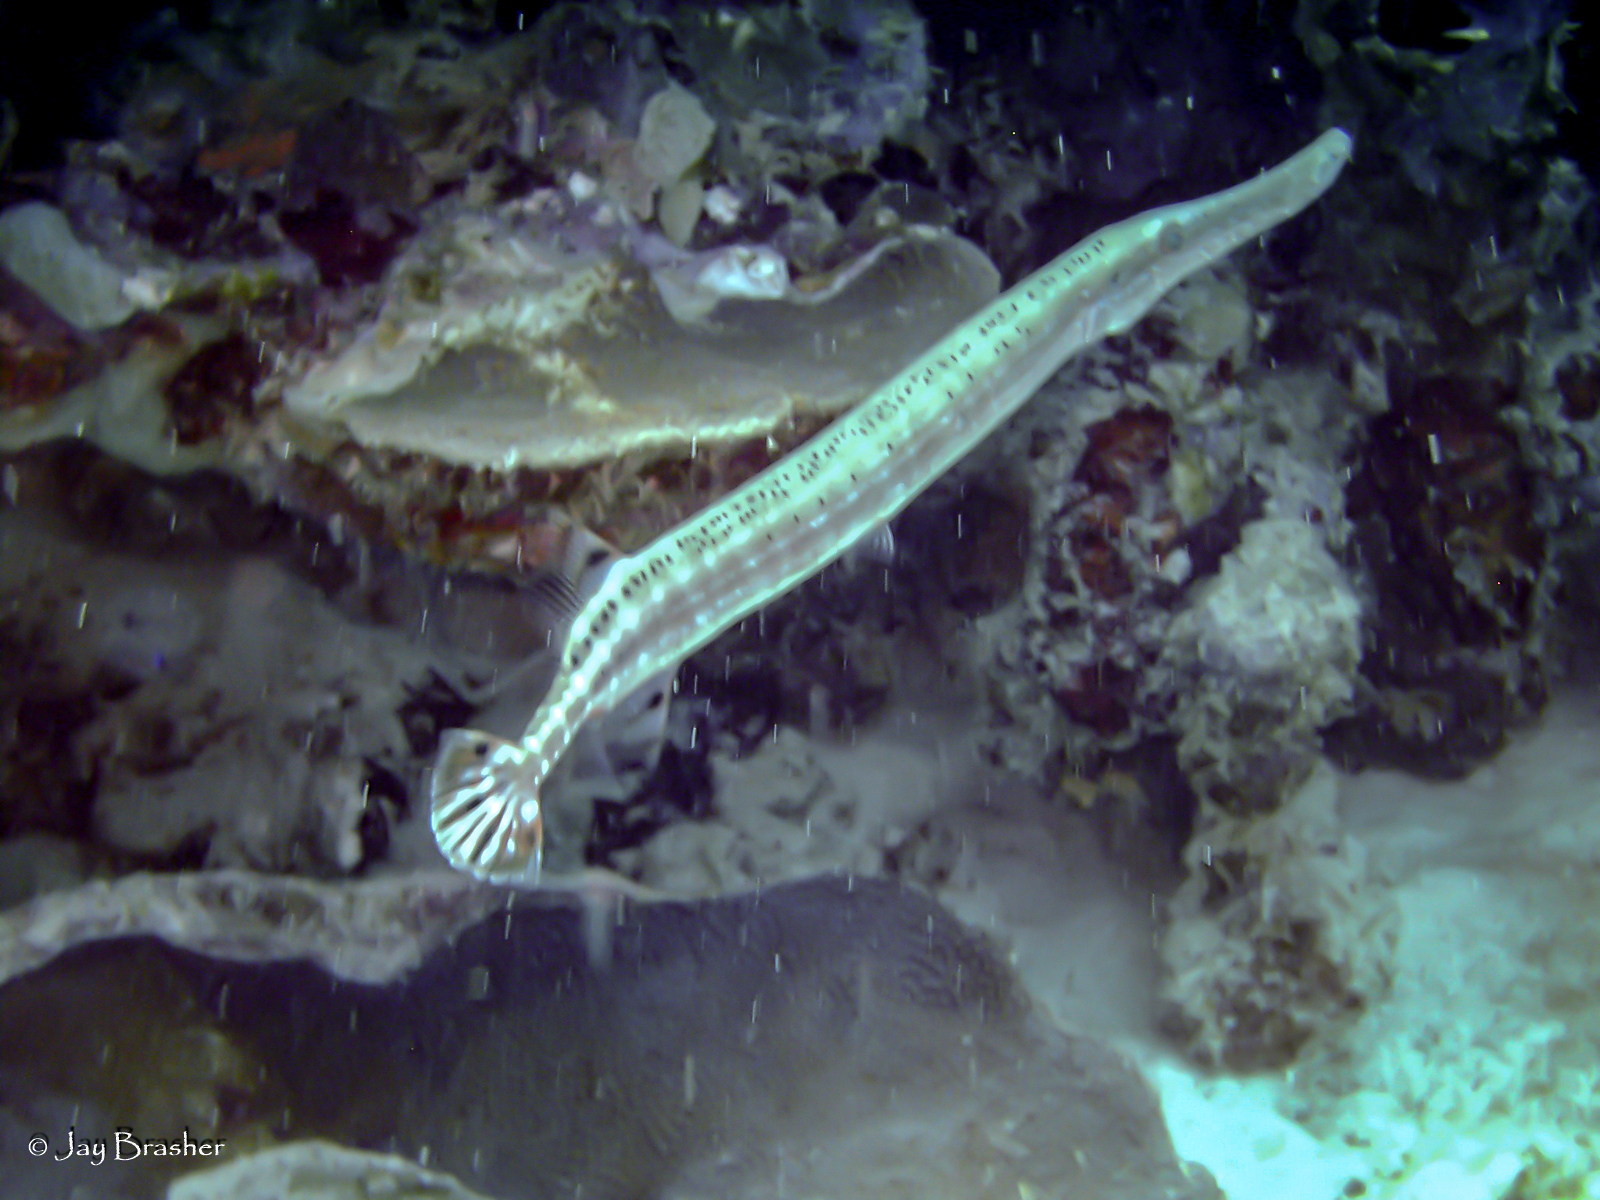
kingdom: Animalia
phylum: Chordata
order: Syngnathiformes
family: Aulostomidae
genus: Aulostomus
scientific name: Aulostomus maculatus
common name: West atlantic trumpetfish
